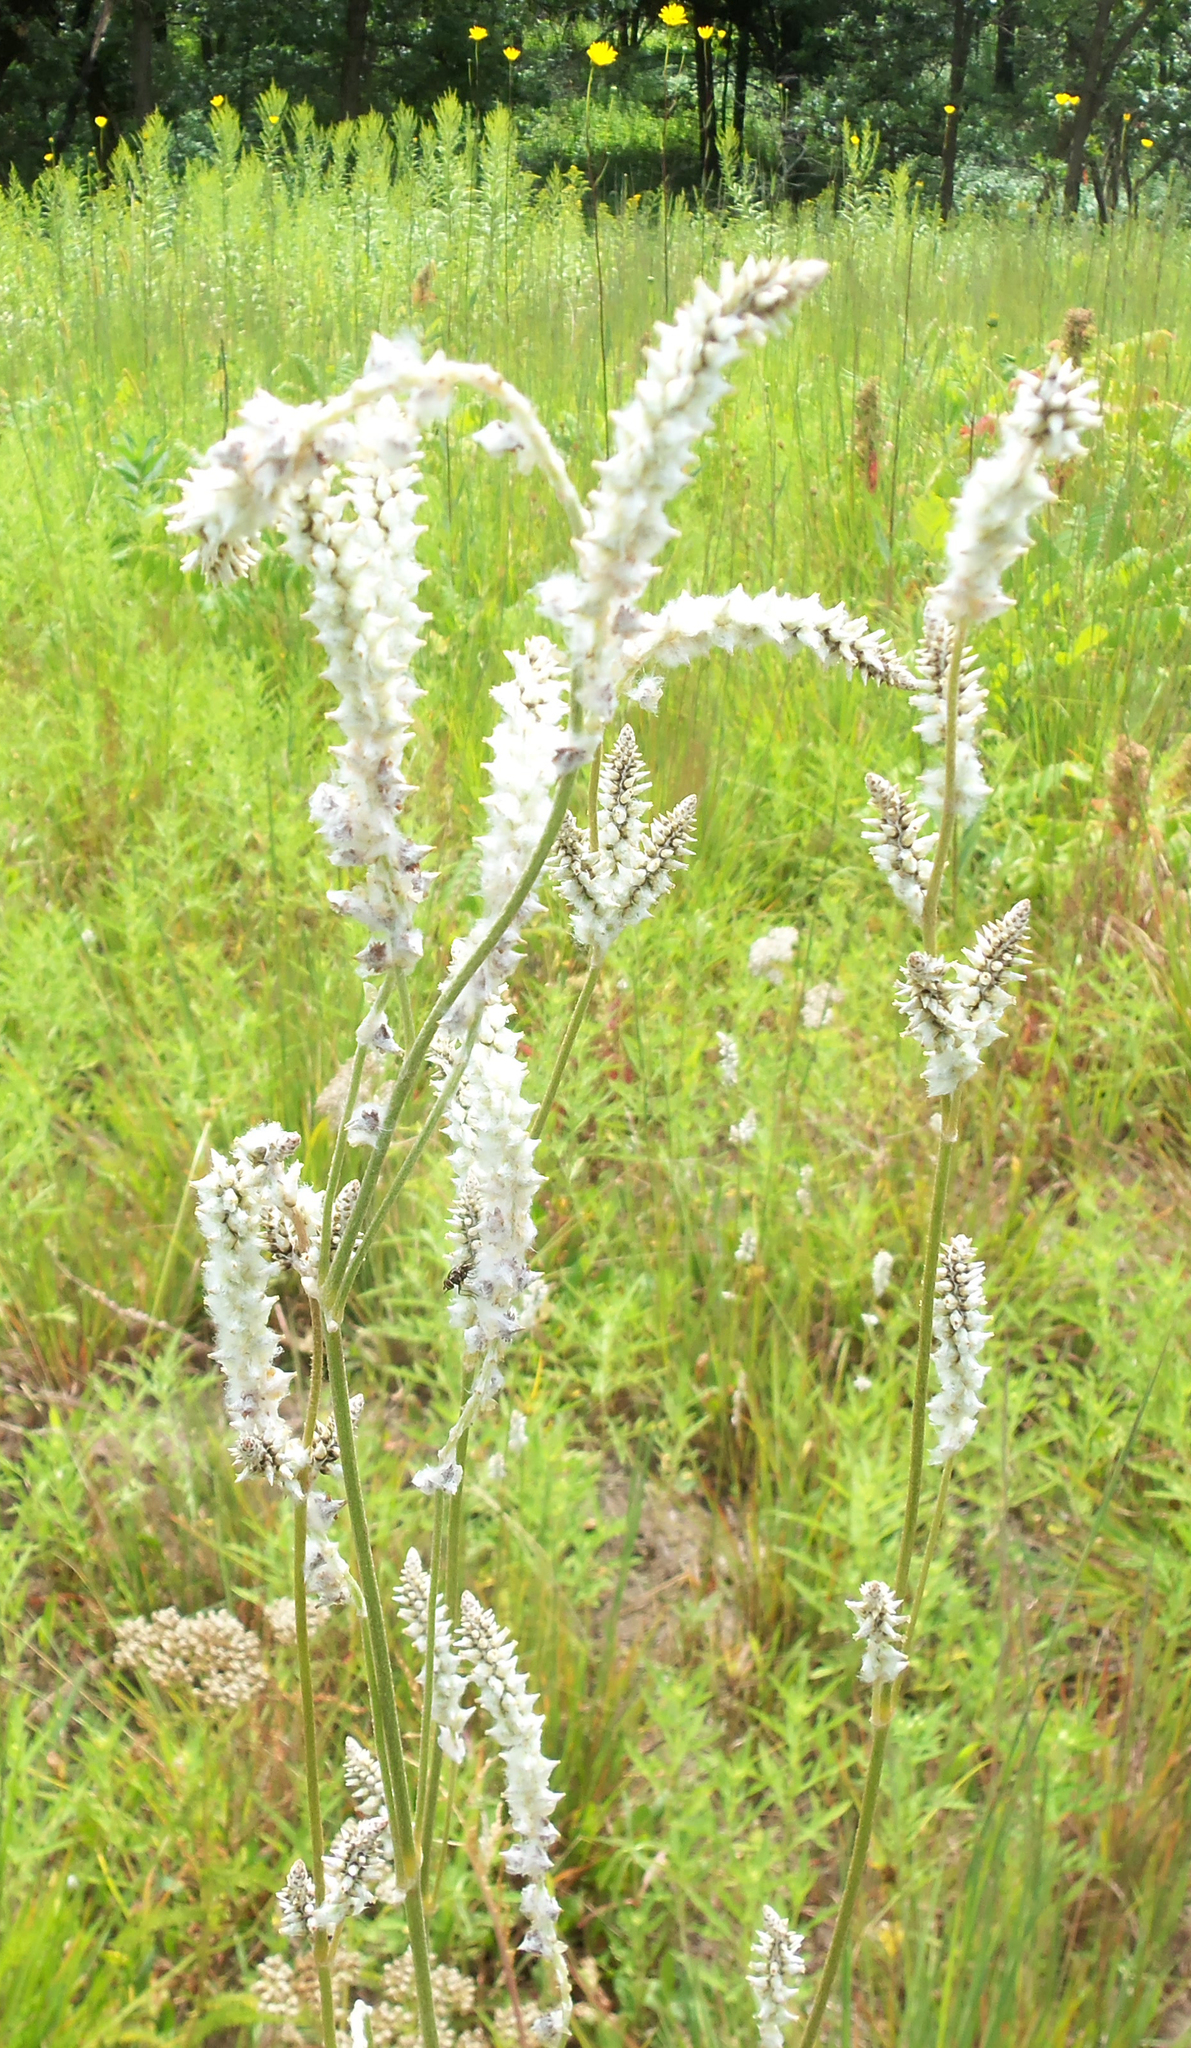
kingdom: Plantae
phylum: Tracheophyta
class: Magnoliopsida
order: Caryophyllales
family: Amaranthaceae
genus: Froelichia
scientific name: Froelichia floridana
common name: Florida snake-cotton
